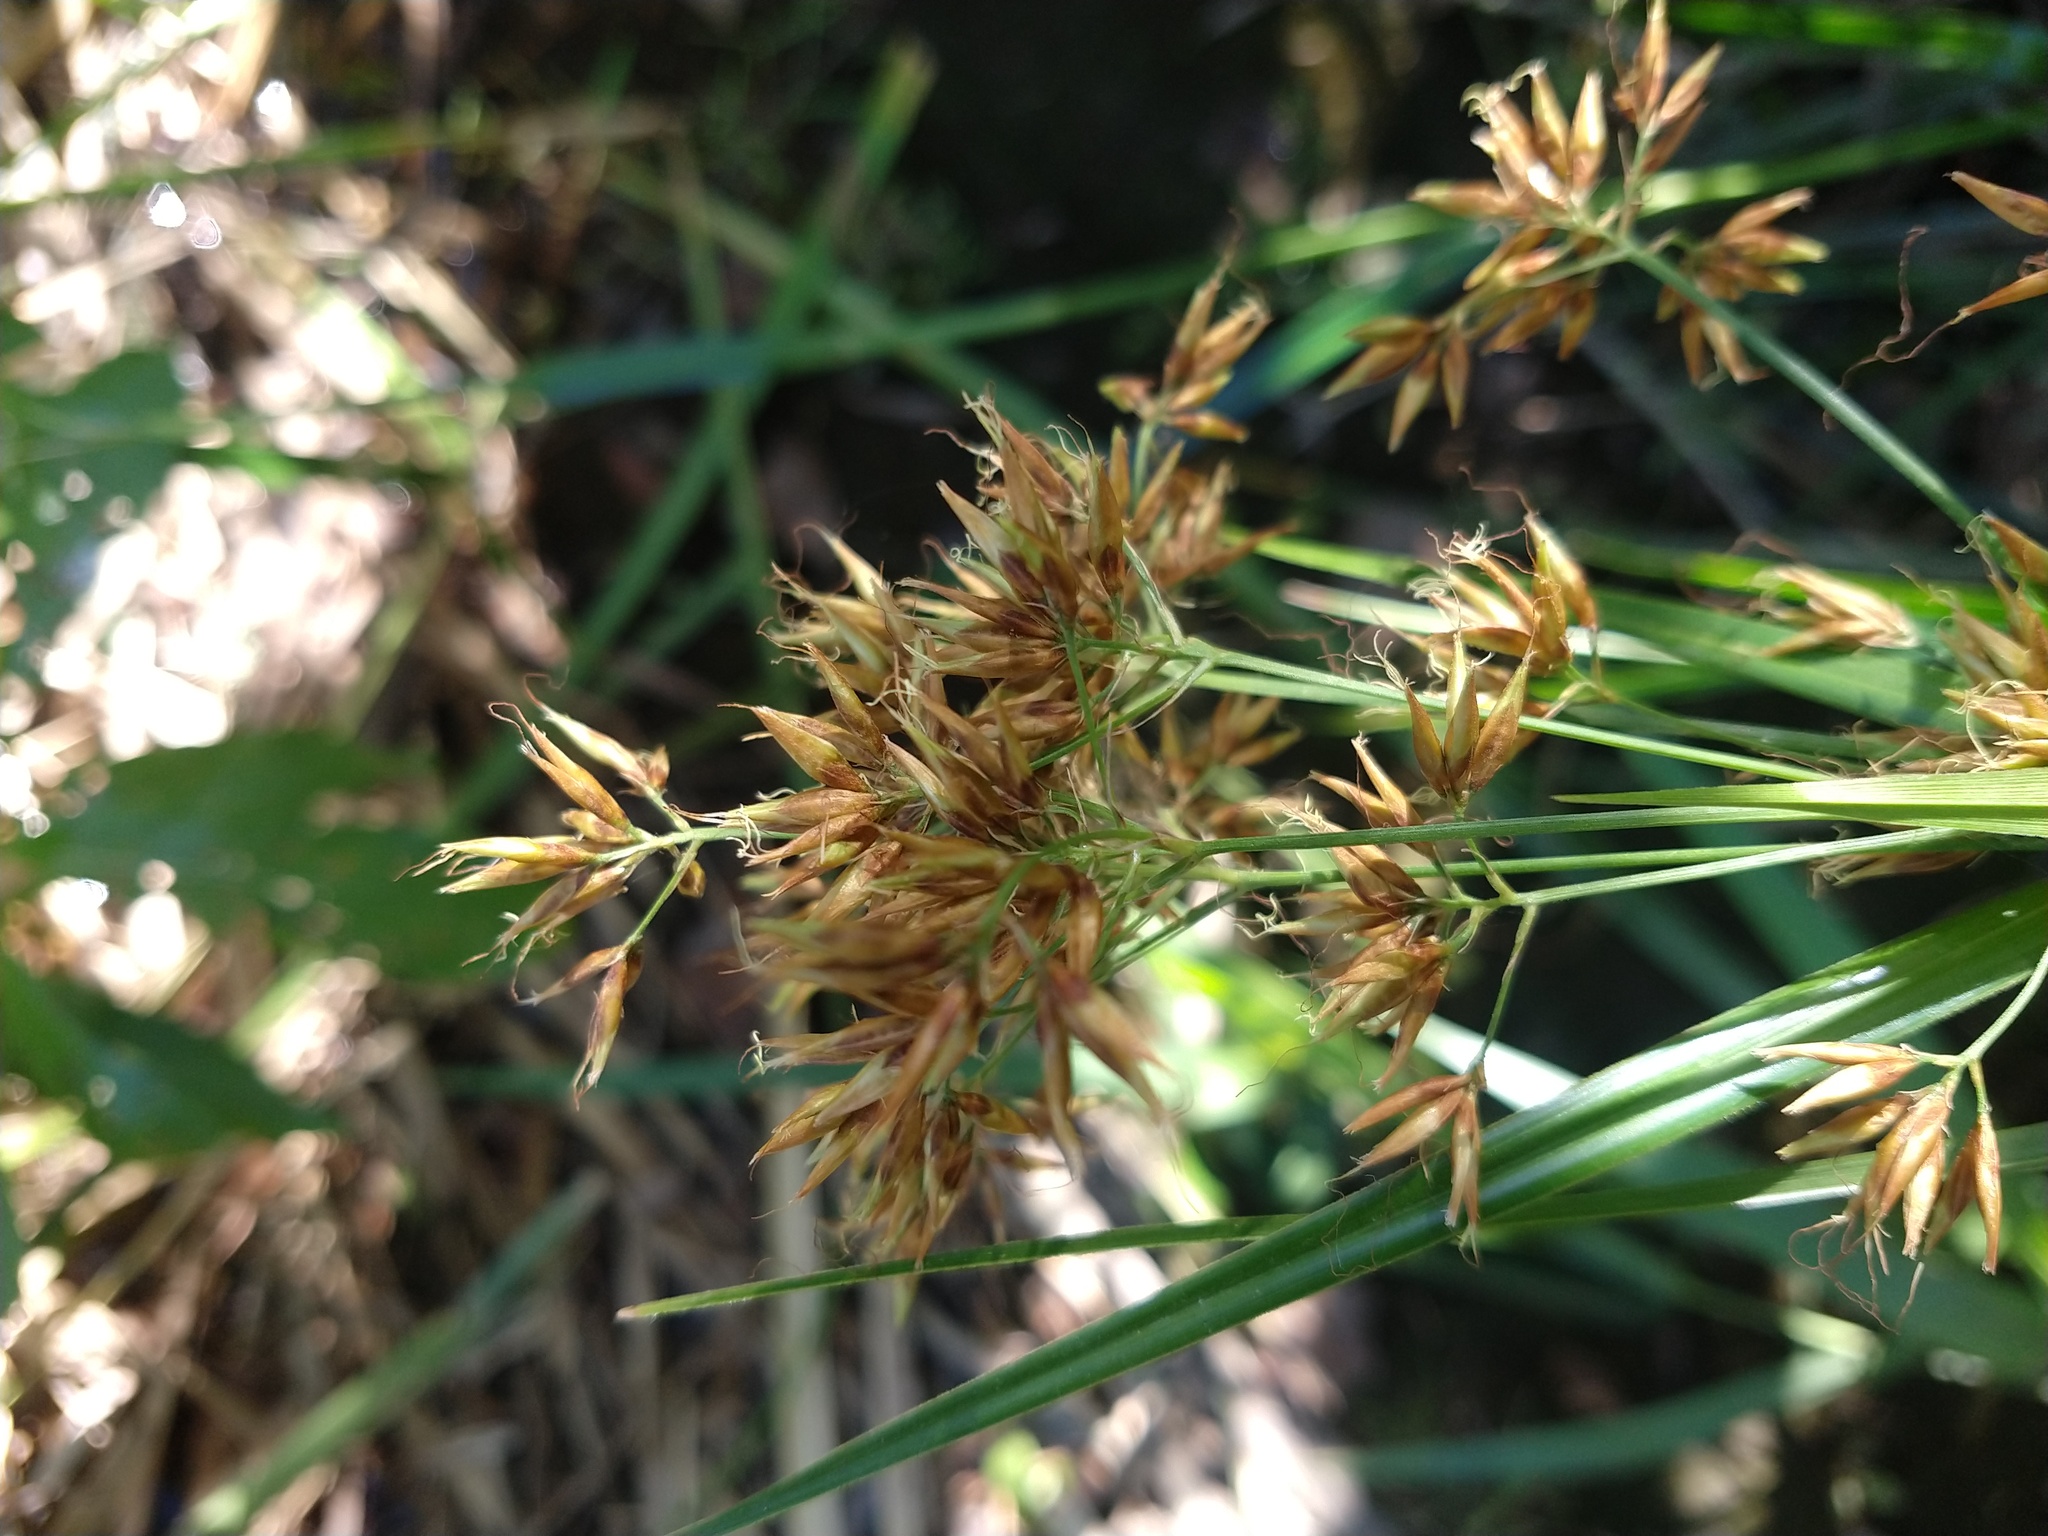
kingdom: Plantae
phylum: Tracheophyta
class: Liliopsida
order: Poales
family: Cyperaceae
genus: Rhynchospora
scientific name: Rhynchospora corymbosa
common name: Golden beak sedge
